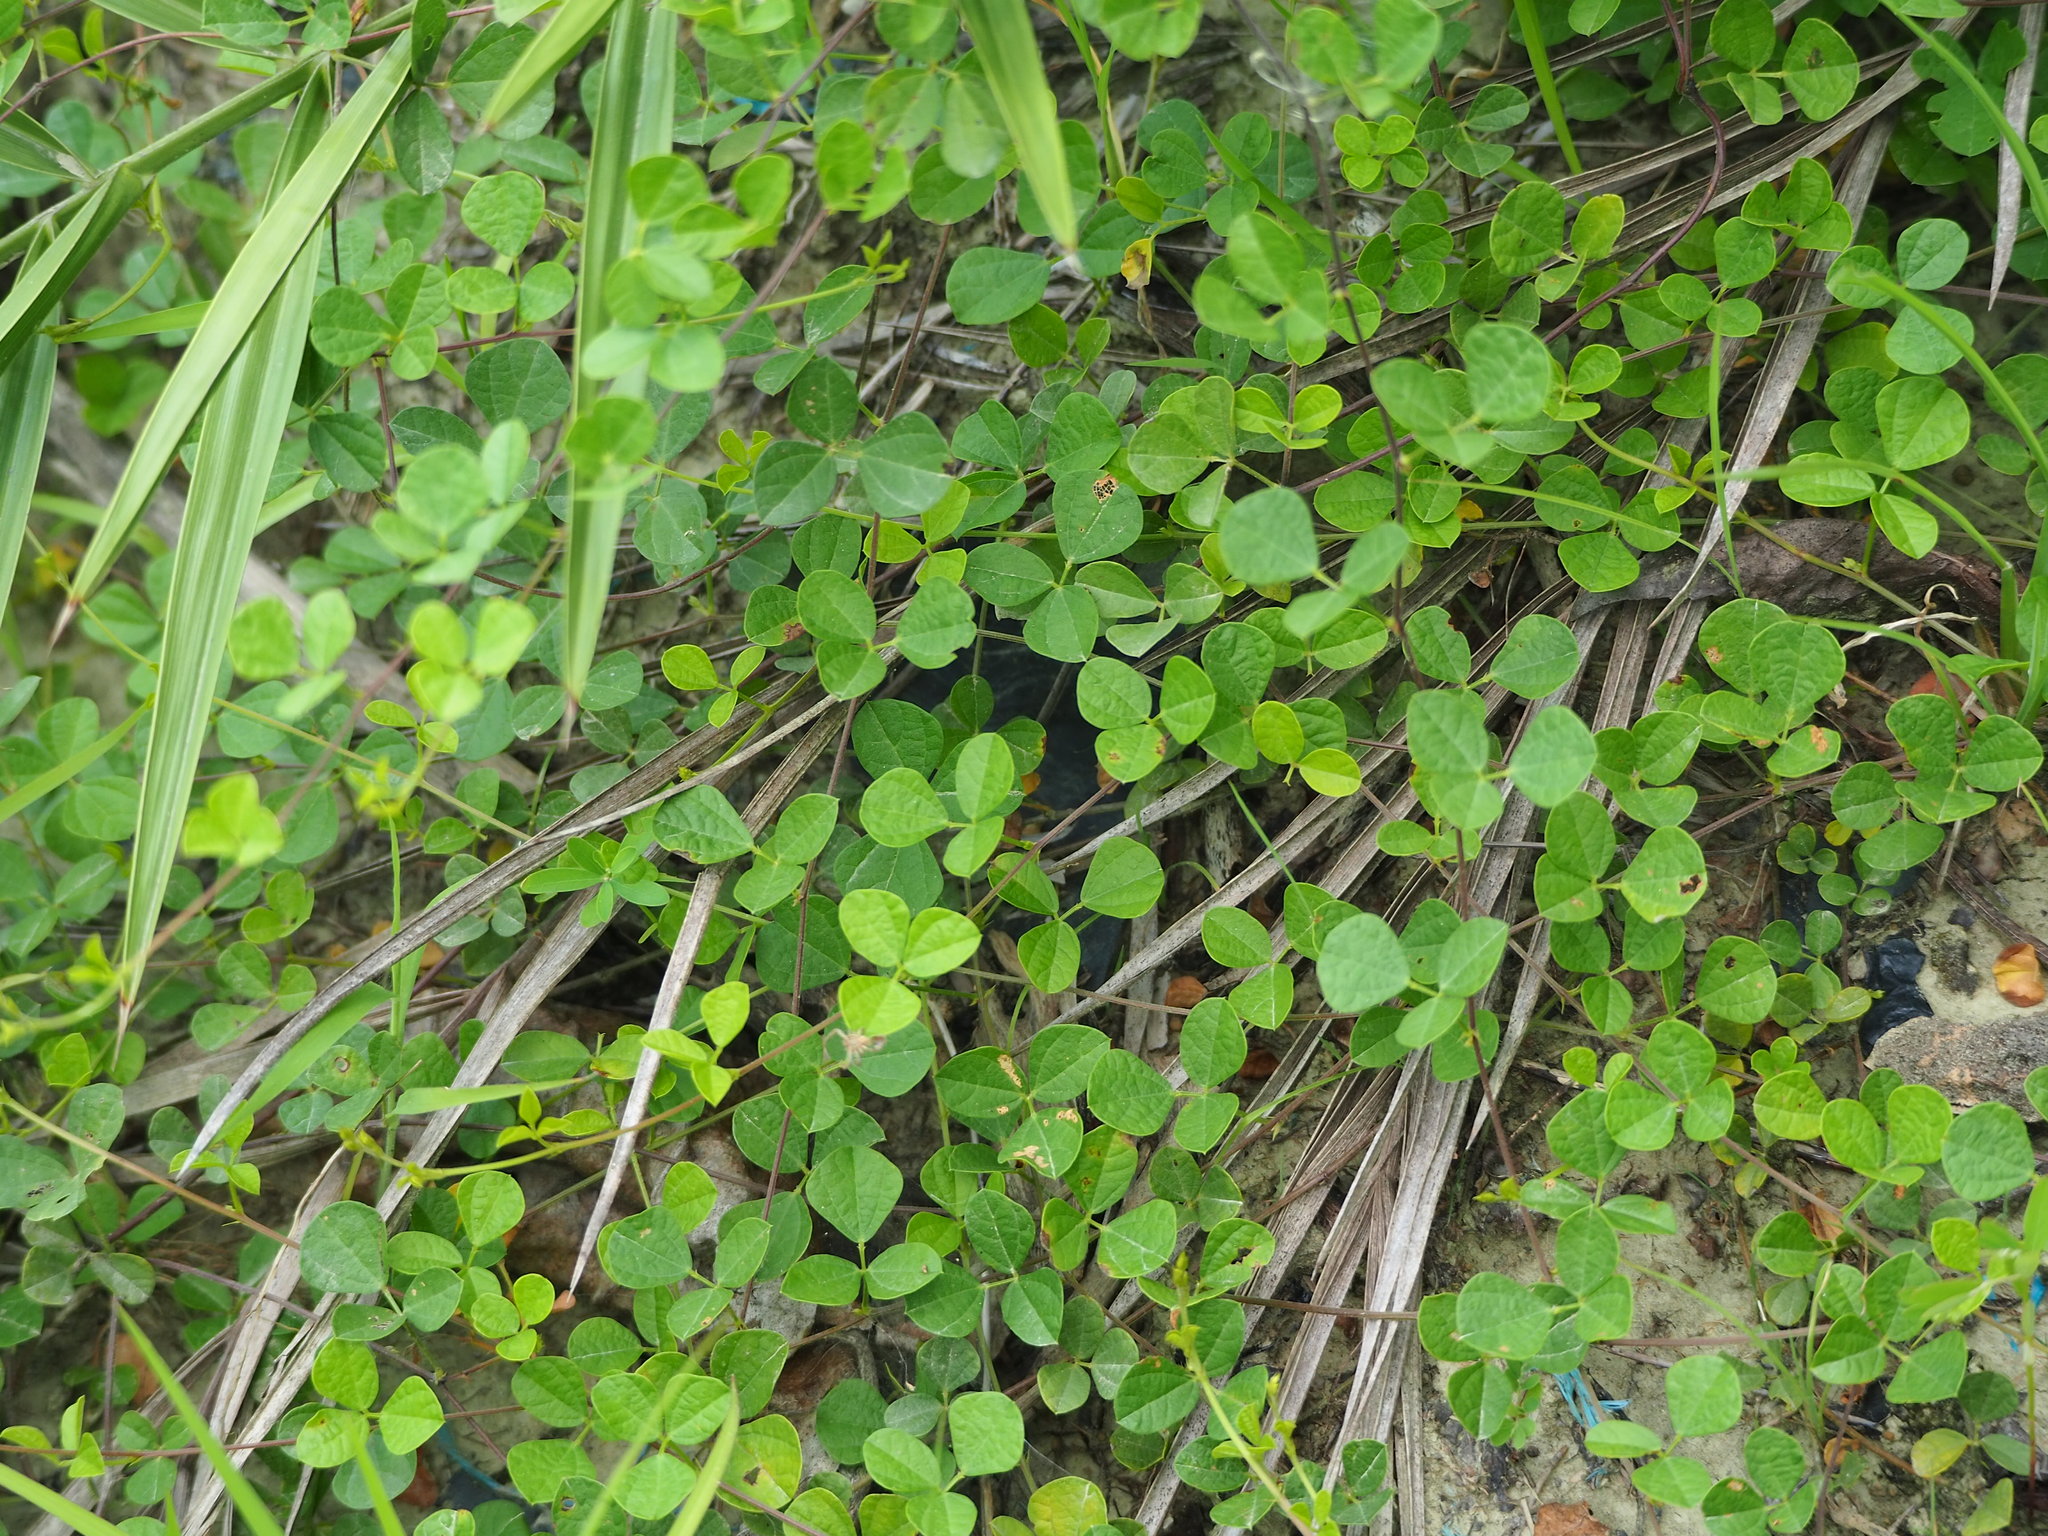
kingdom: Plantae
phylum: Tracheophyta
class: Magnoliopsida
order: Fabales
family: Fabaceae
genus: Rhynchosia
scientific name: Rhynchosia minima
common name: Least snoutbean
